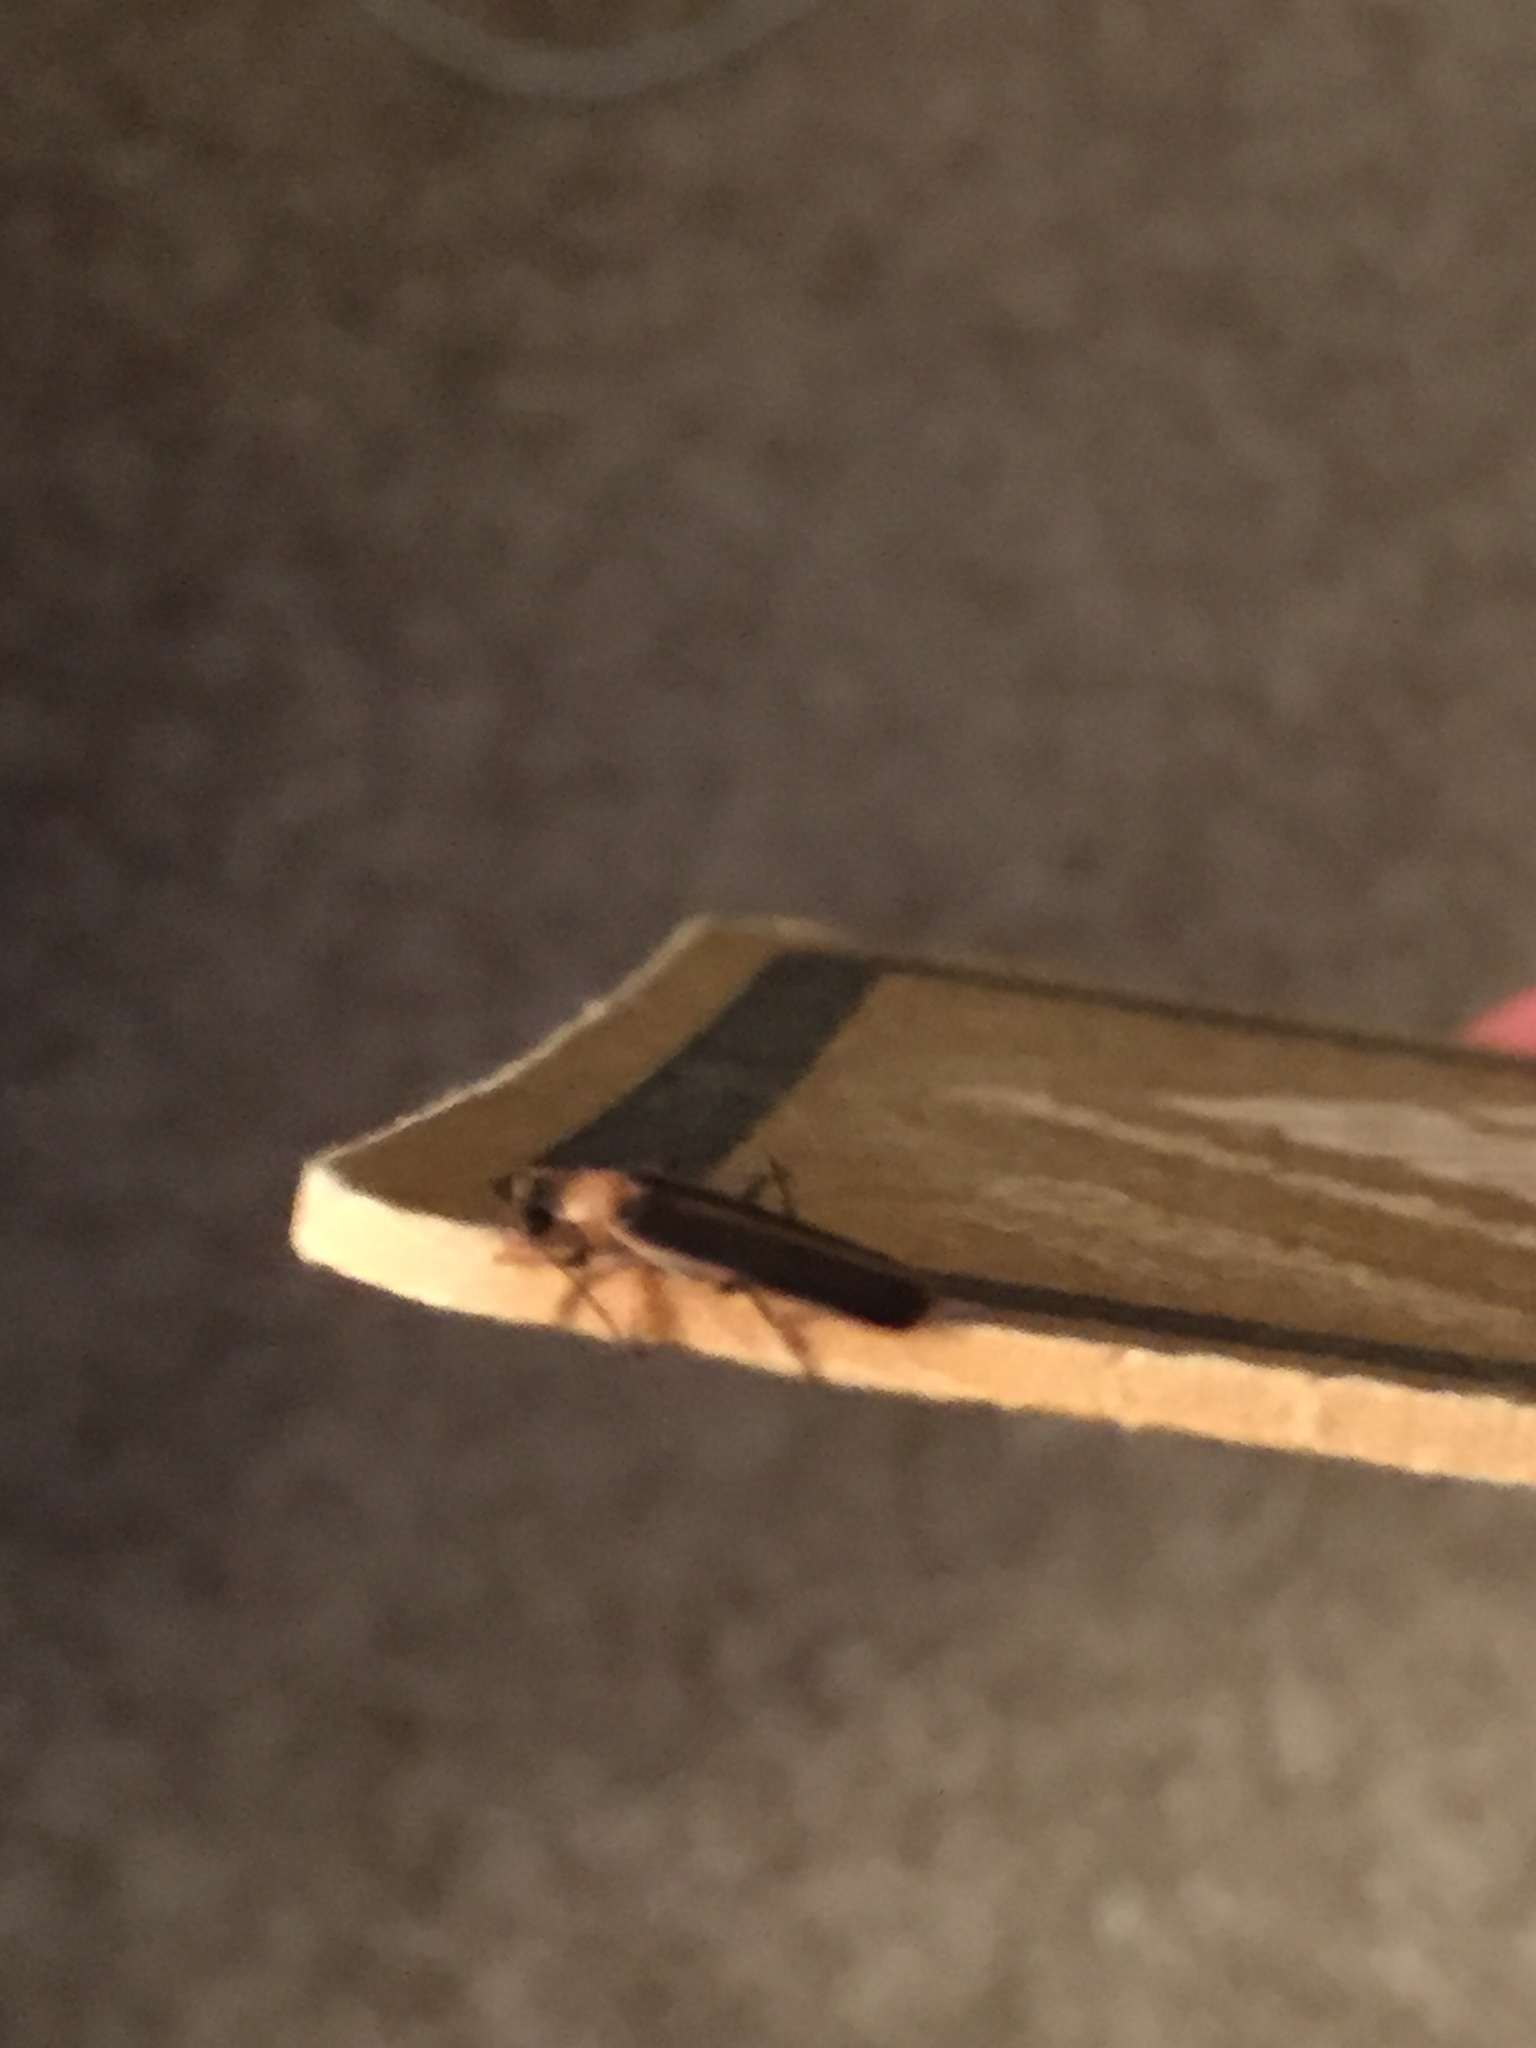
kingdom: Animalia
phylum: Arthropoda
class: Insecta
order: Coleoptera
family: Cantharidae
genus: Podabrus
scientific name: Podabrus flavicollis
